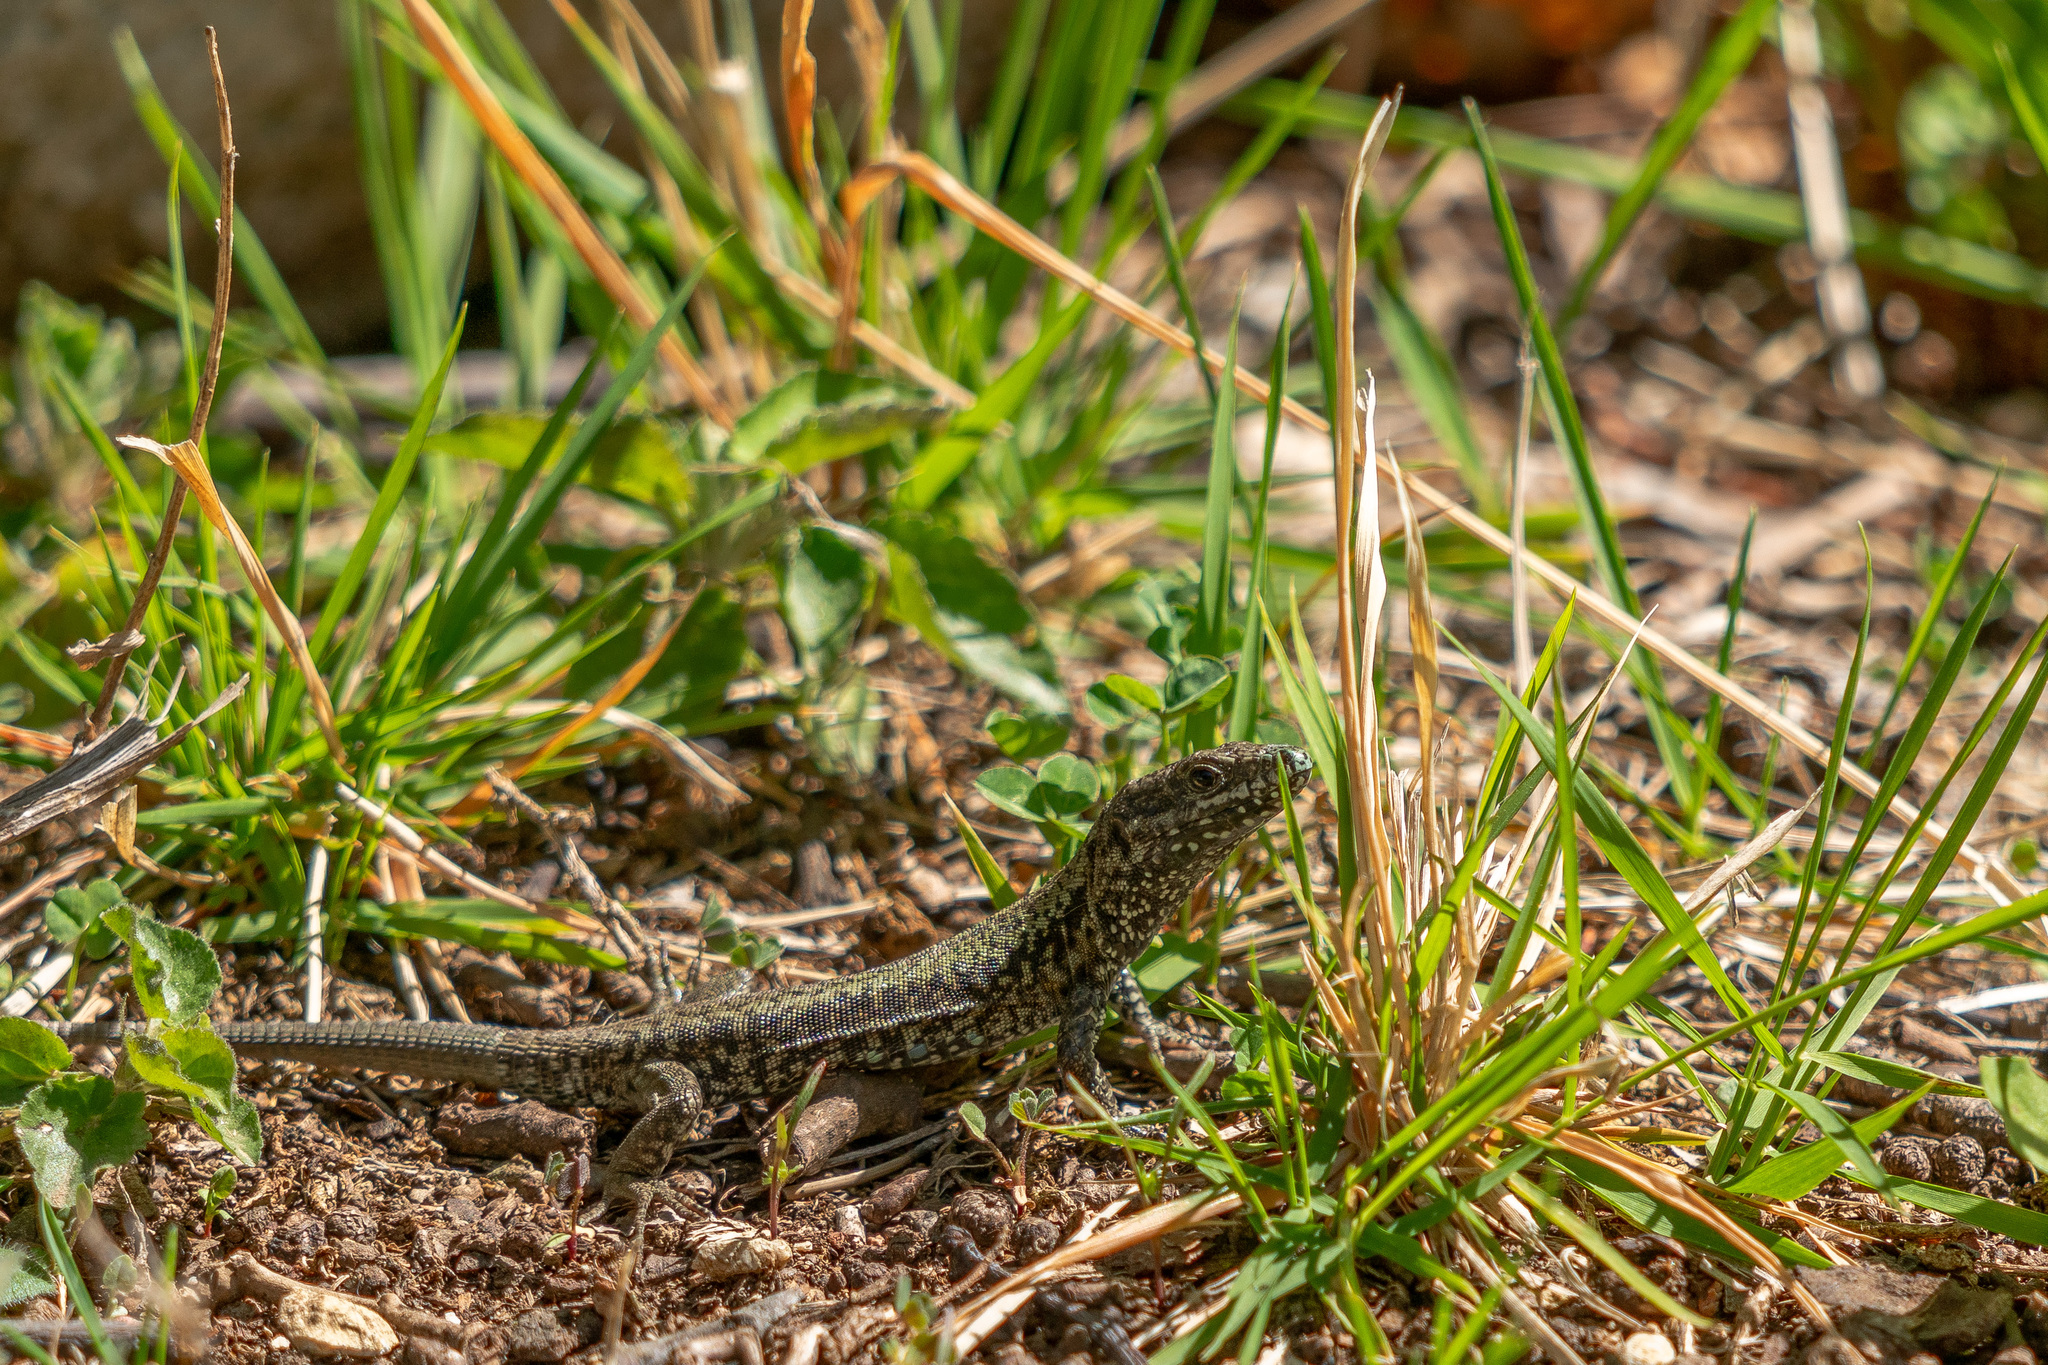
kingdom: Animalia
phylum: Chordata
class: Squamata
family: Lacertidae
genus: Podarcis
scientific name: Podarcis muralis
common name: Common wall lizard
